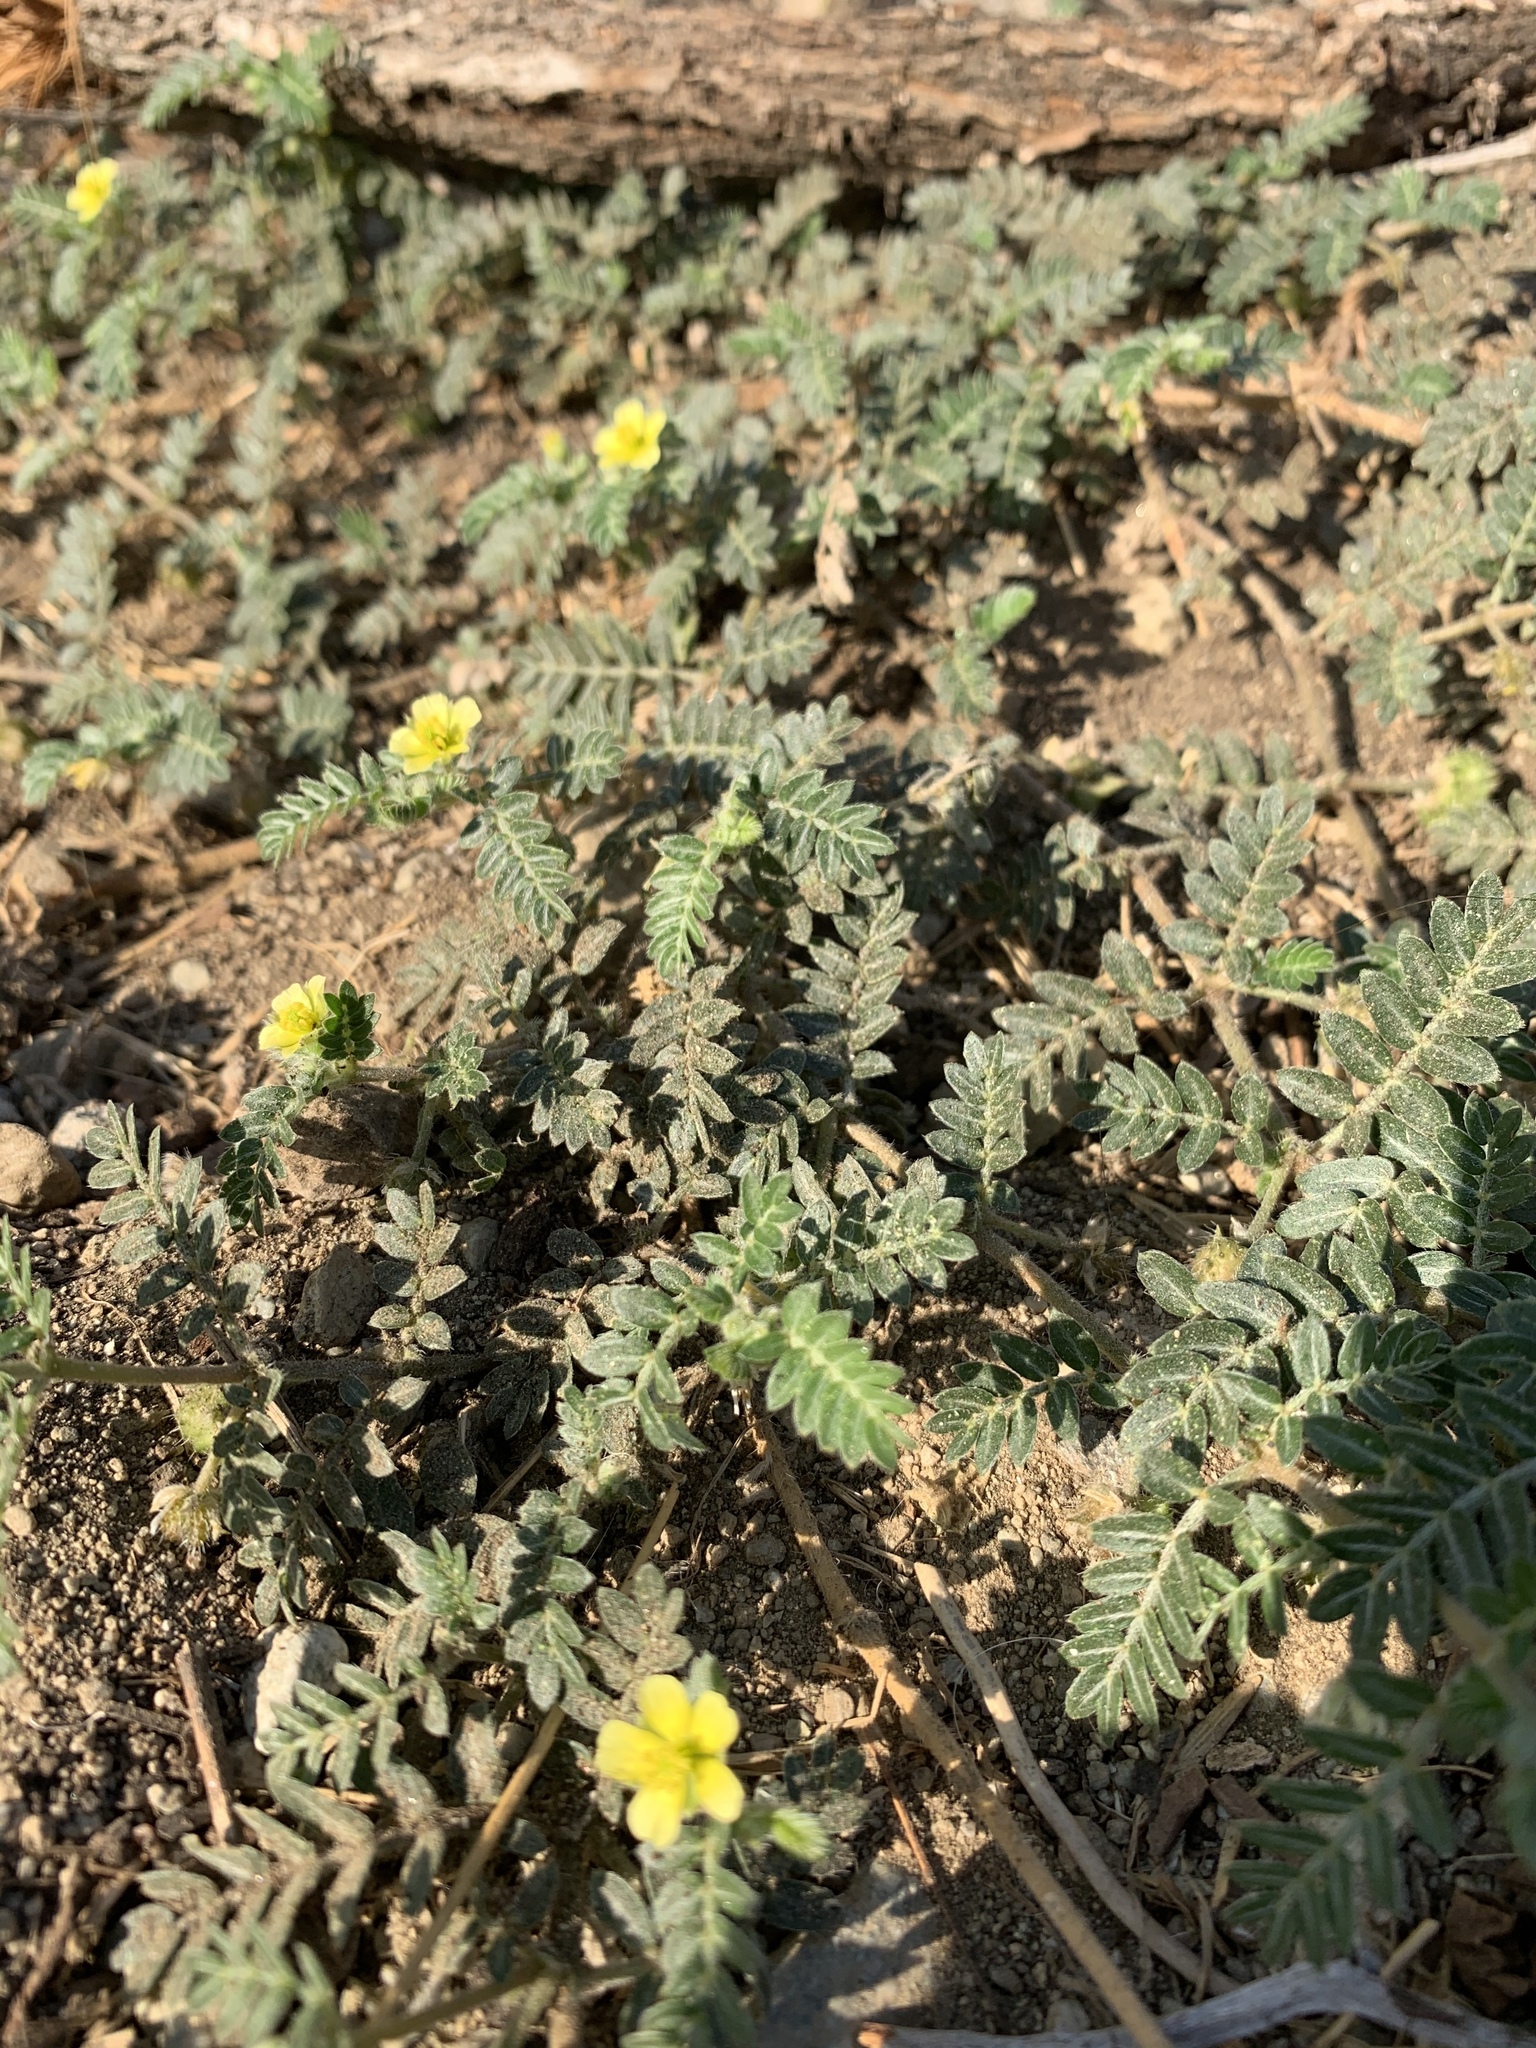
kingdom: Plantae
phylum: Tracheophyta
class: Magnoliopsida
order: Zygophyllales
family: Zygophyllaceae
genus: Tribulus
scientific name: Tribulus terrestris
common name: Puncturevine
